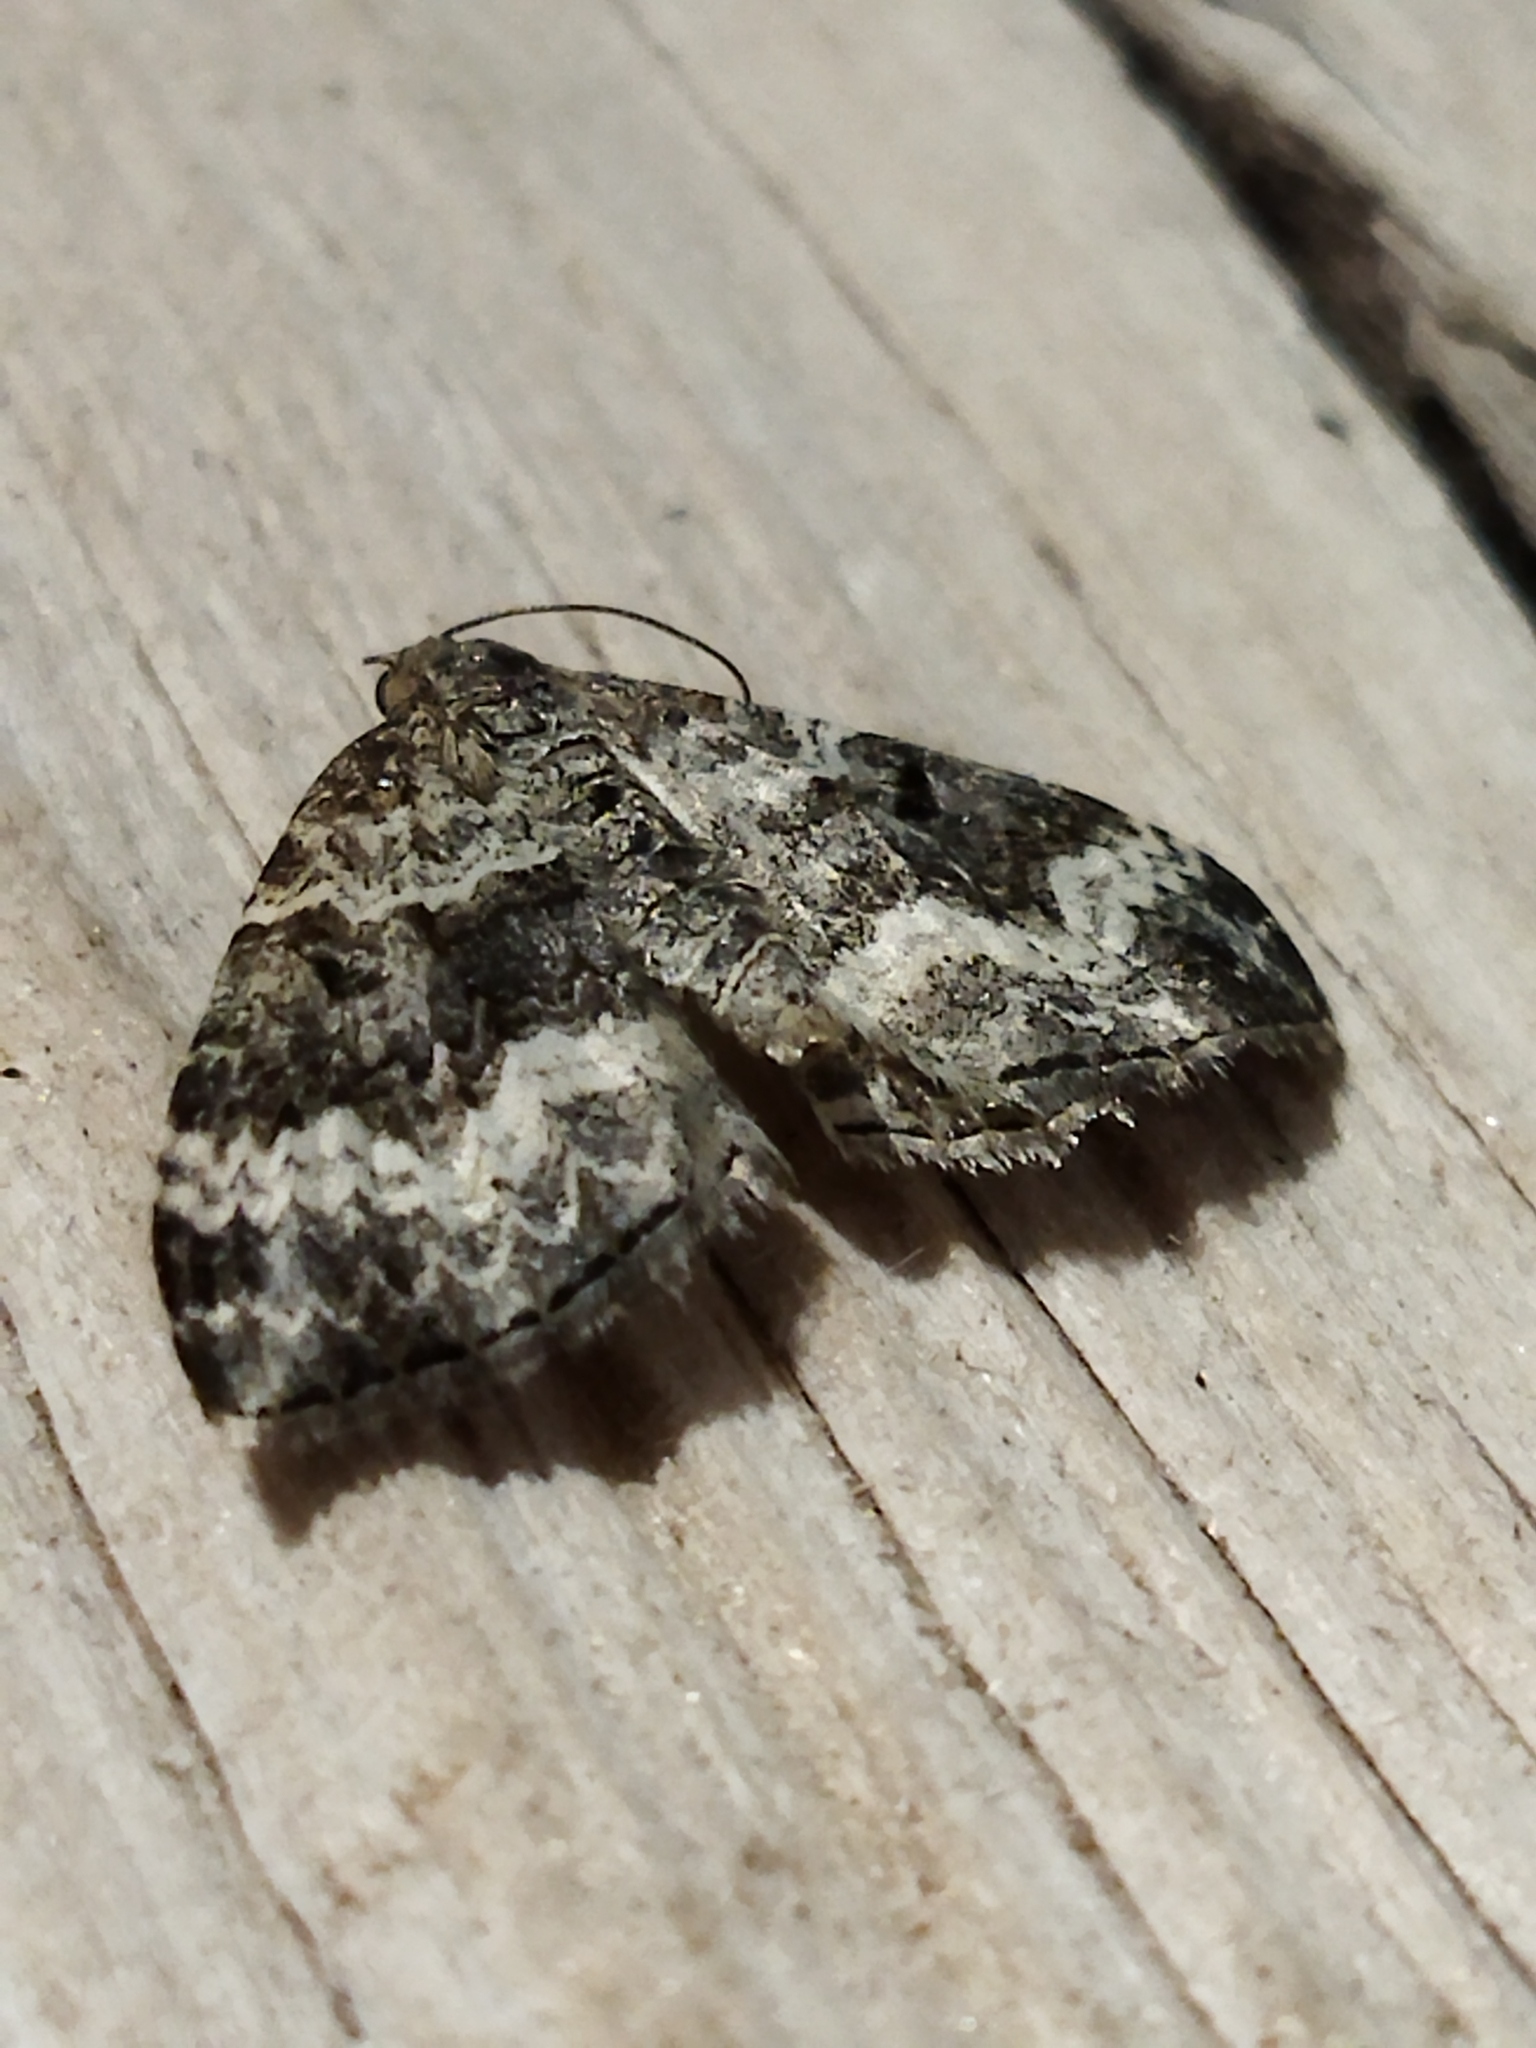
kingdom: Animalia
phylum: Arthropoda
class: Insecta
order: Lepidoptera
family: Geometridae
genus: Epirrhoe
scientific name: Epirrhoe alternata
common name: Common carpet
